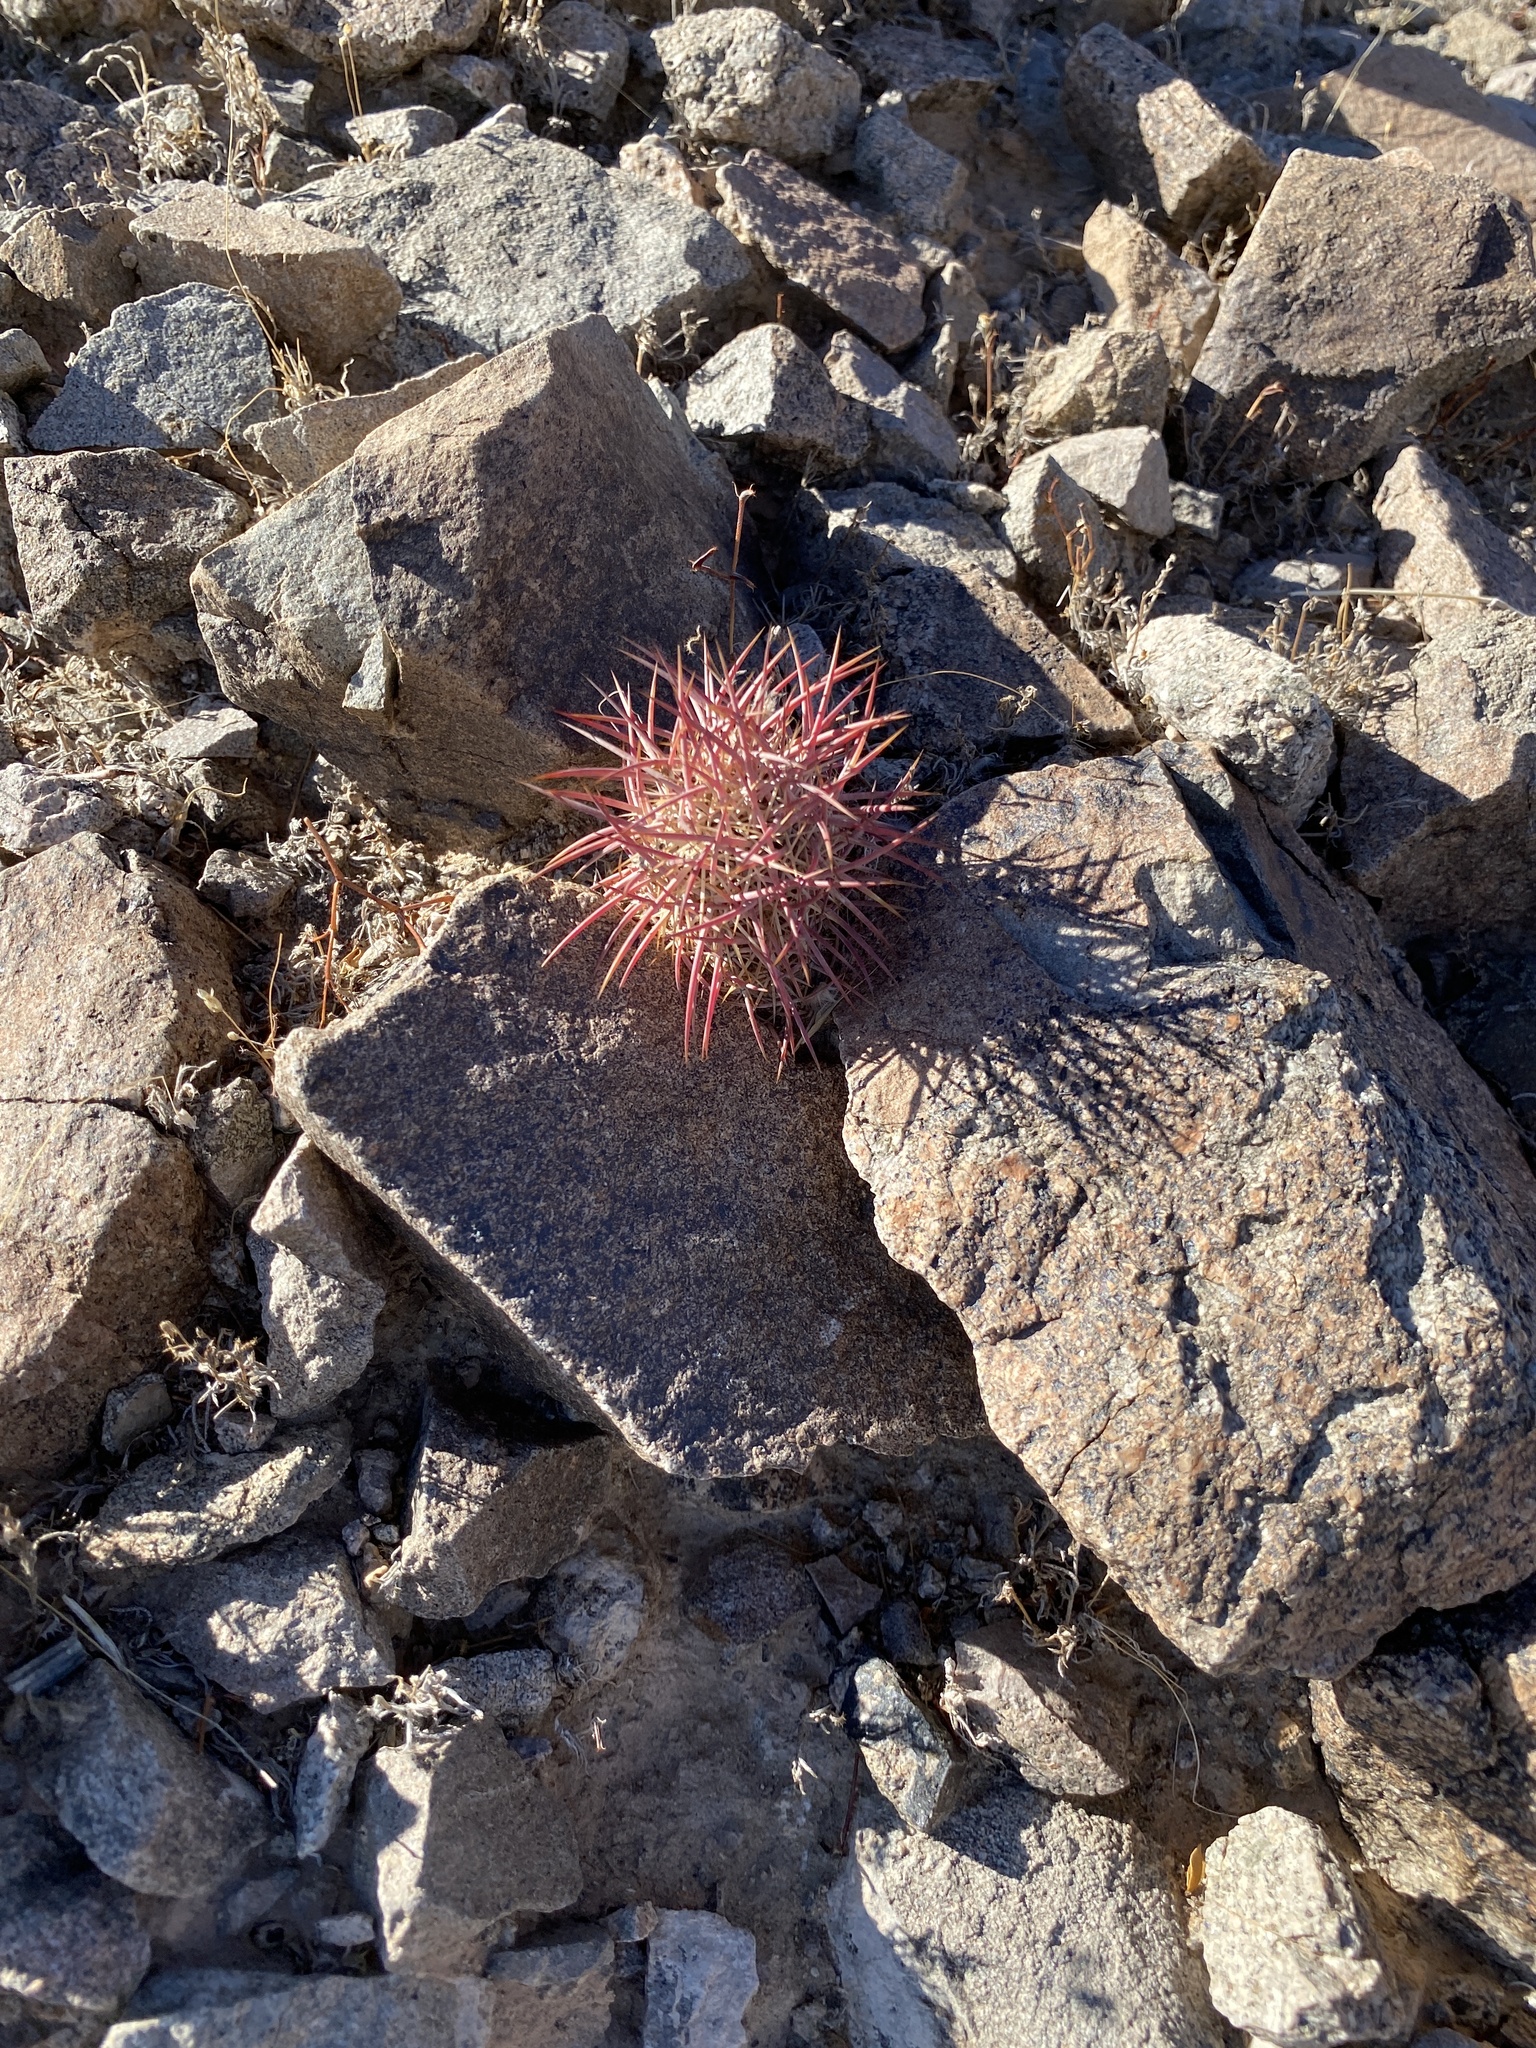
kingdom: Plantae
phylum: Tracheophyta
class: Magnoliopsida
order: Caryophyllales
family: Cactaceae
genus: Sclerocactus
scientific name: Sclerocactus johnsonii
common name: Eight-spine fishhook cactus
